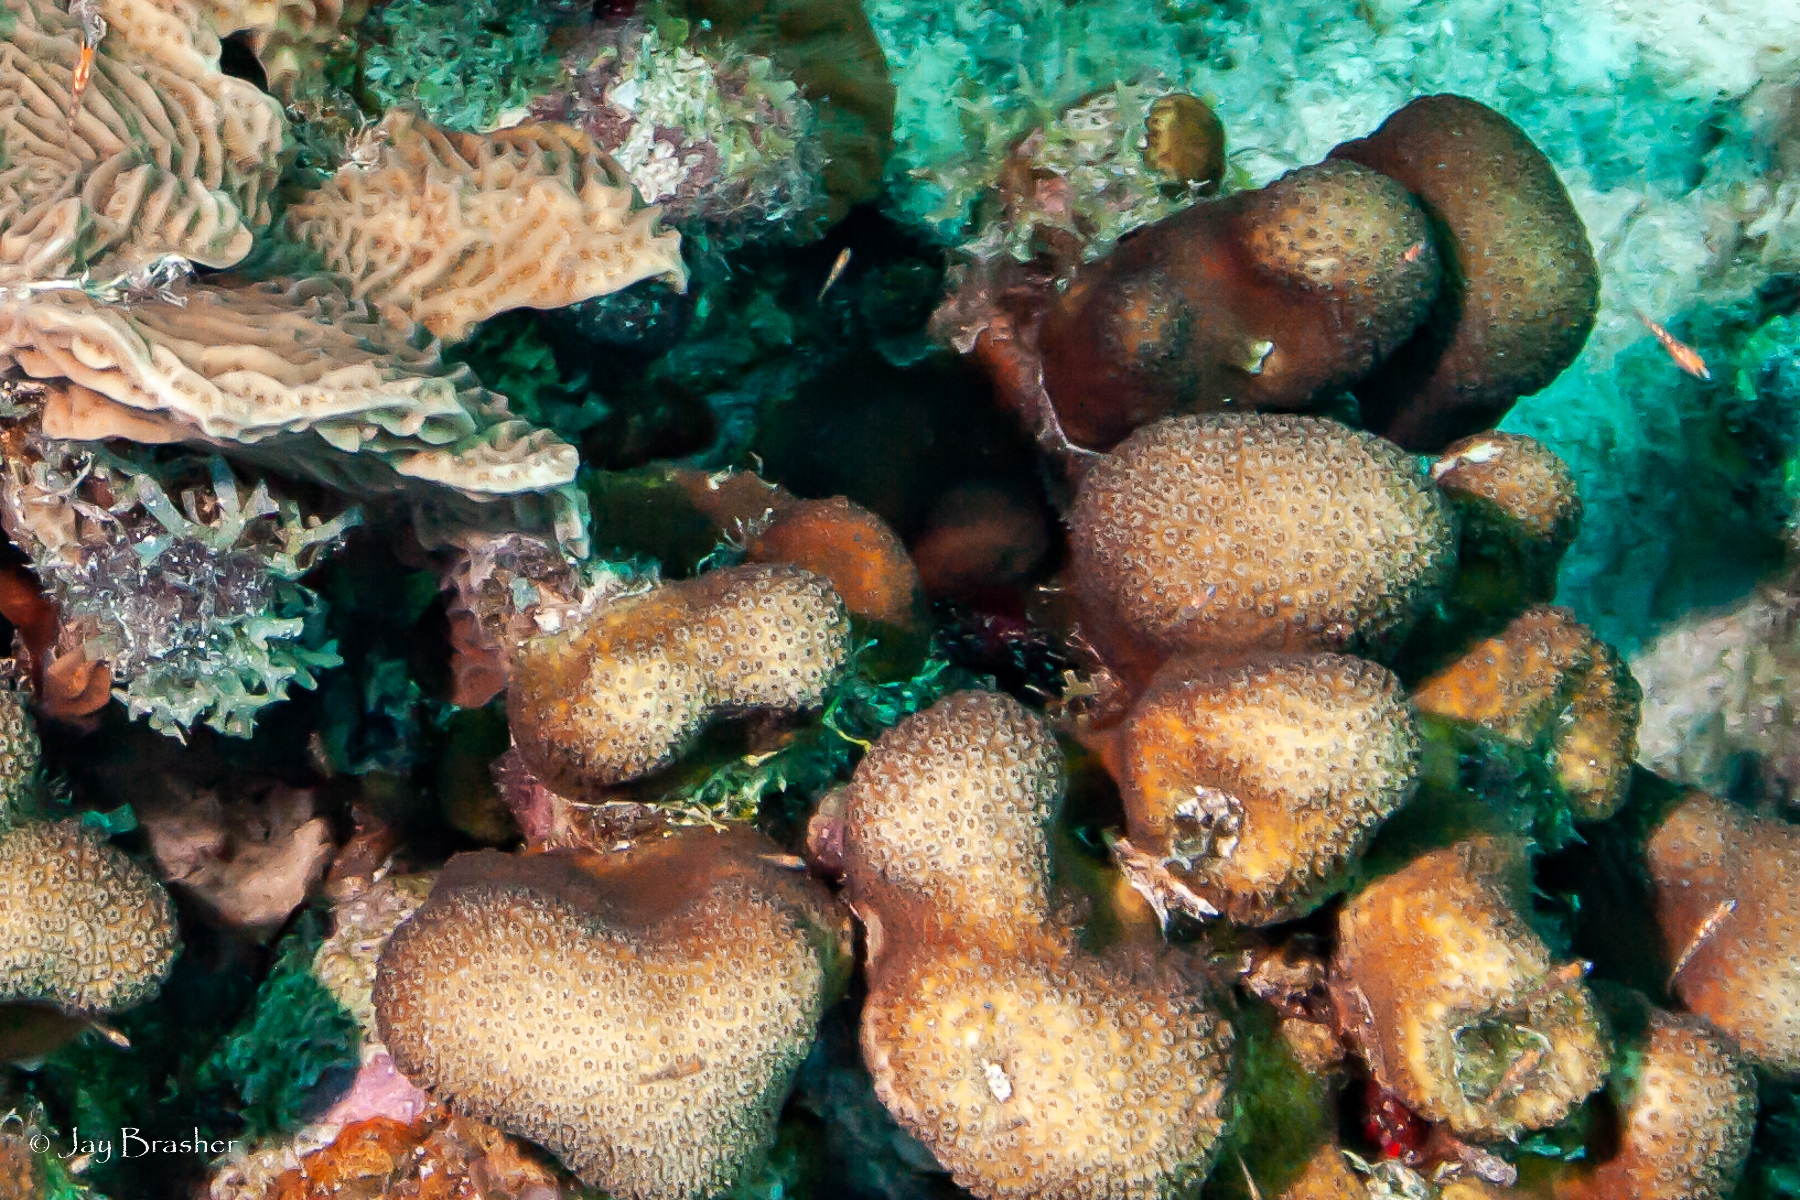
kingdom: Animalia
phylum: Cnidaria
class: Anthozoa
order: Scleractinia
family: Merulinidae
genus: Orbicella
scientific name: Orbicella annularis
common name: Boulder star coral
